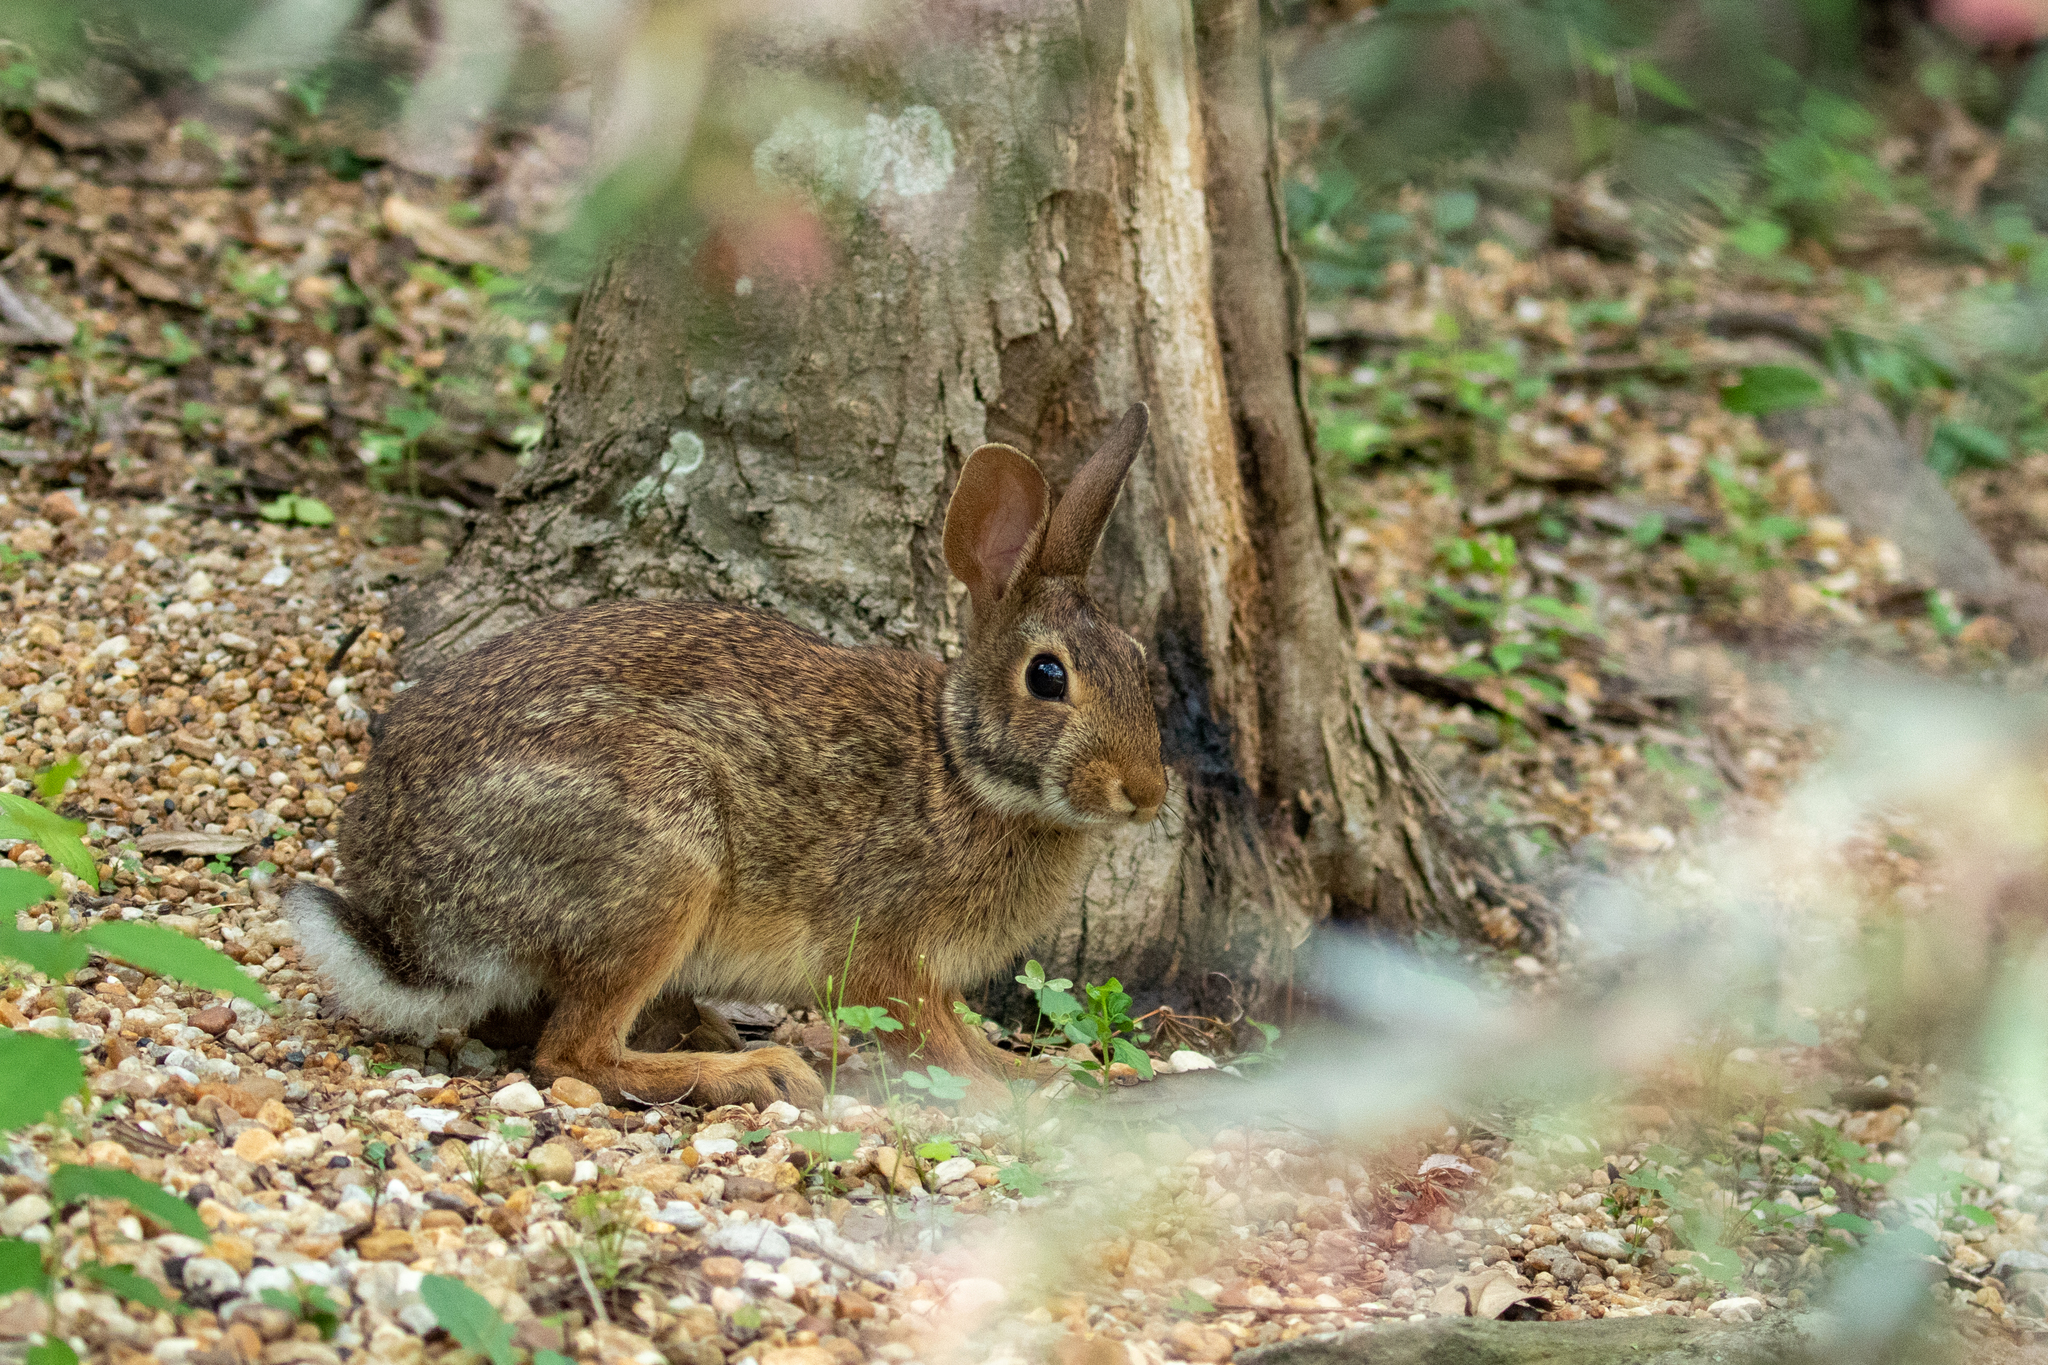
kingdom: Animalia
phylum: Chordata
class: Mammalia
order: Lagomorpha
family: Leporidae
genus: Sylvilagus
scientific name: Sylvilagus floridanus
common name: Eastern cottontail
